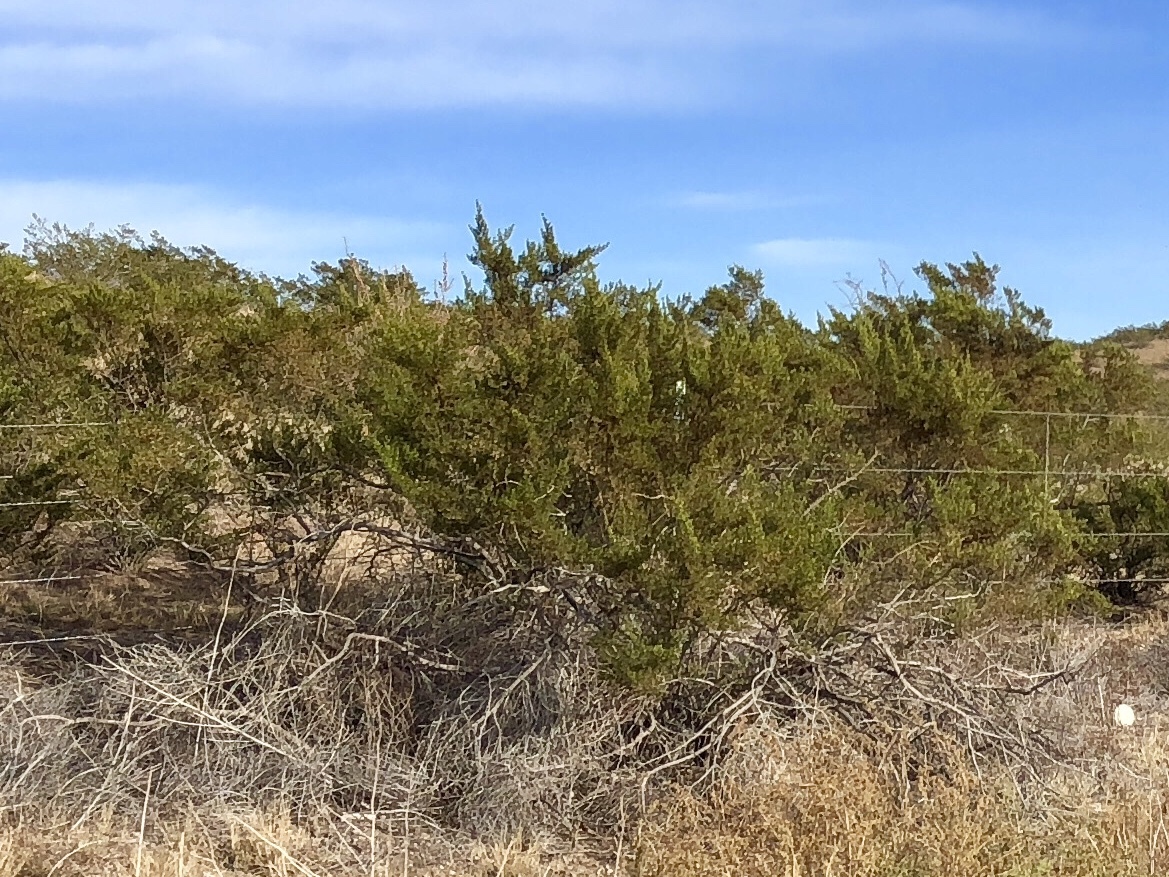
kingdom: Plantae
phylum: Tracheophyta
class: Magnoliopsida
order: Zygophyllales
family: Zygophyllaceae
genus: Larrea
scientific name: Larrea tridentata
